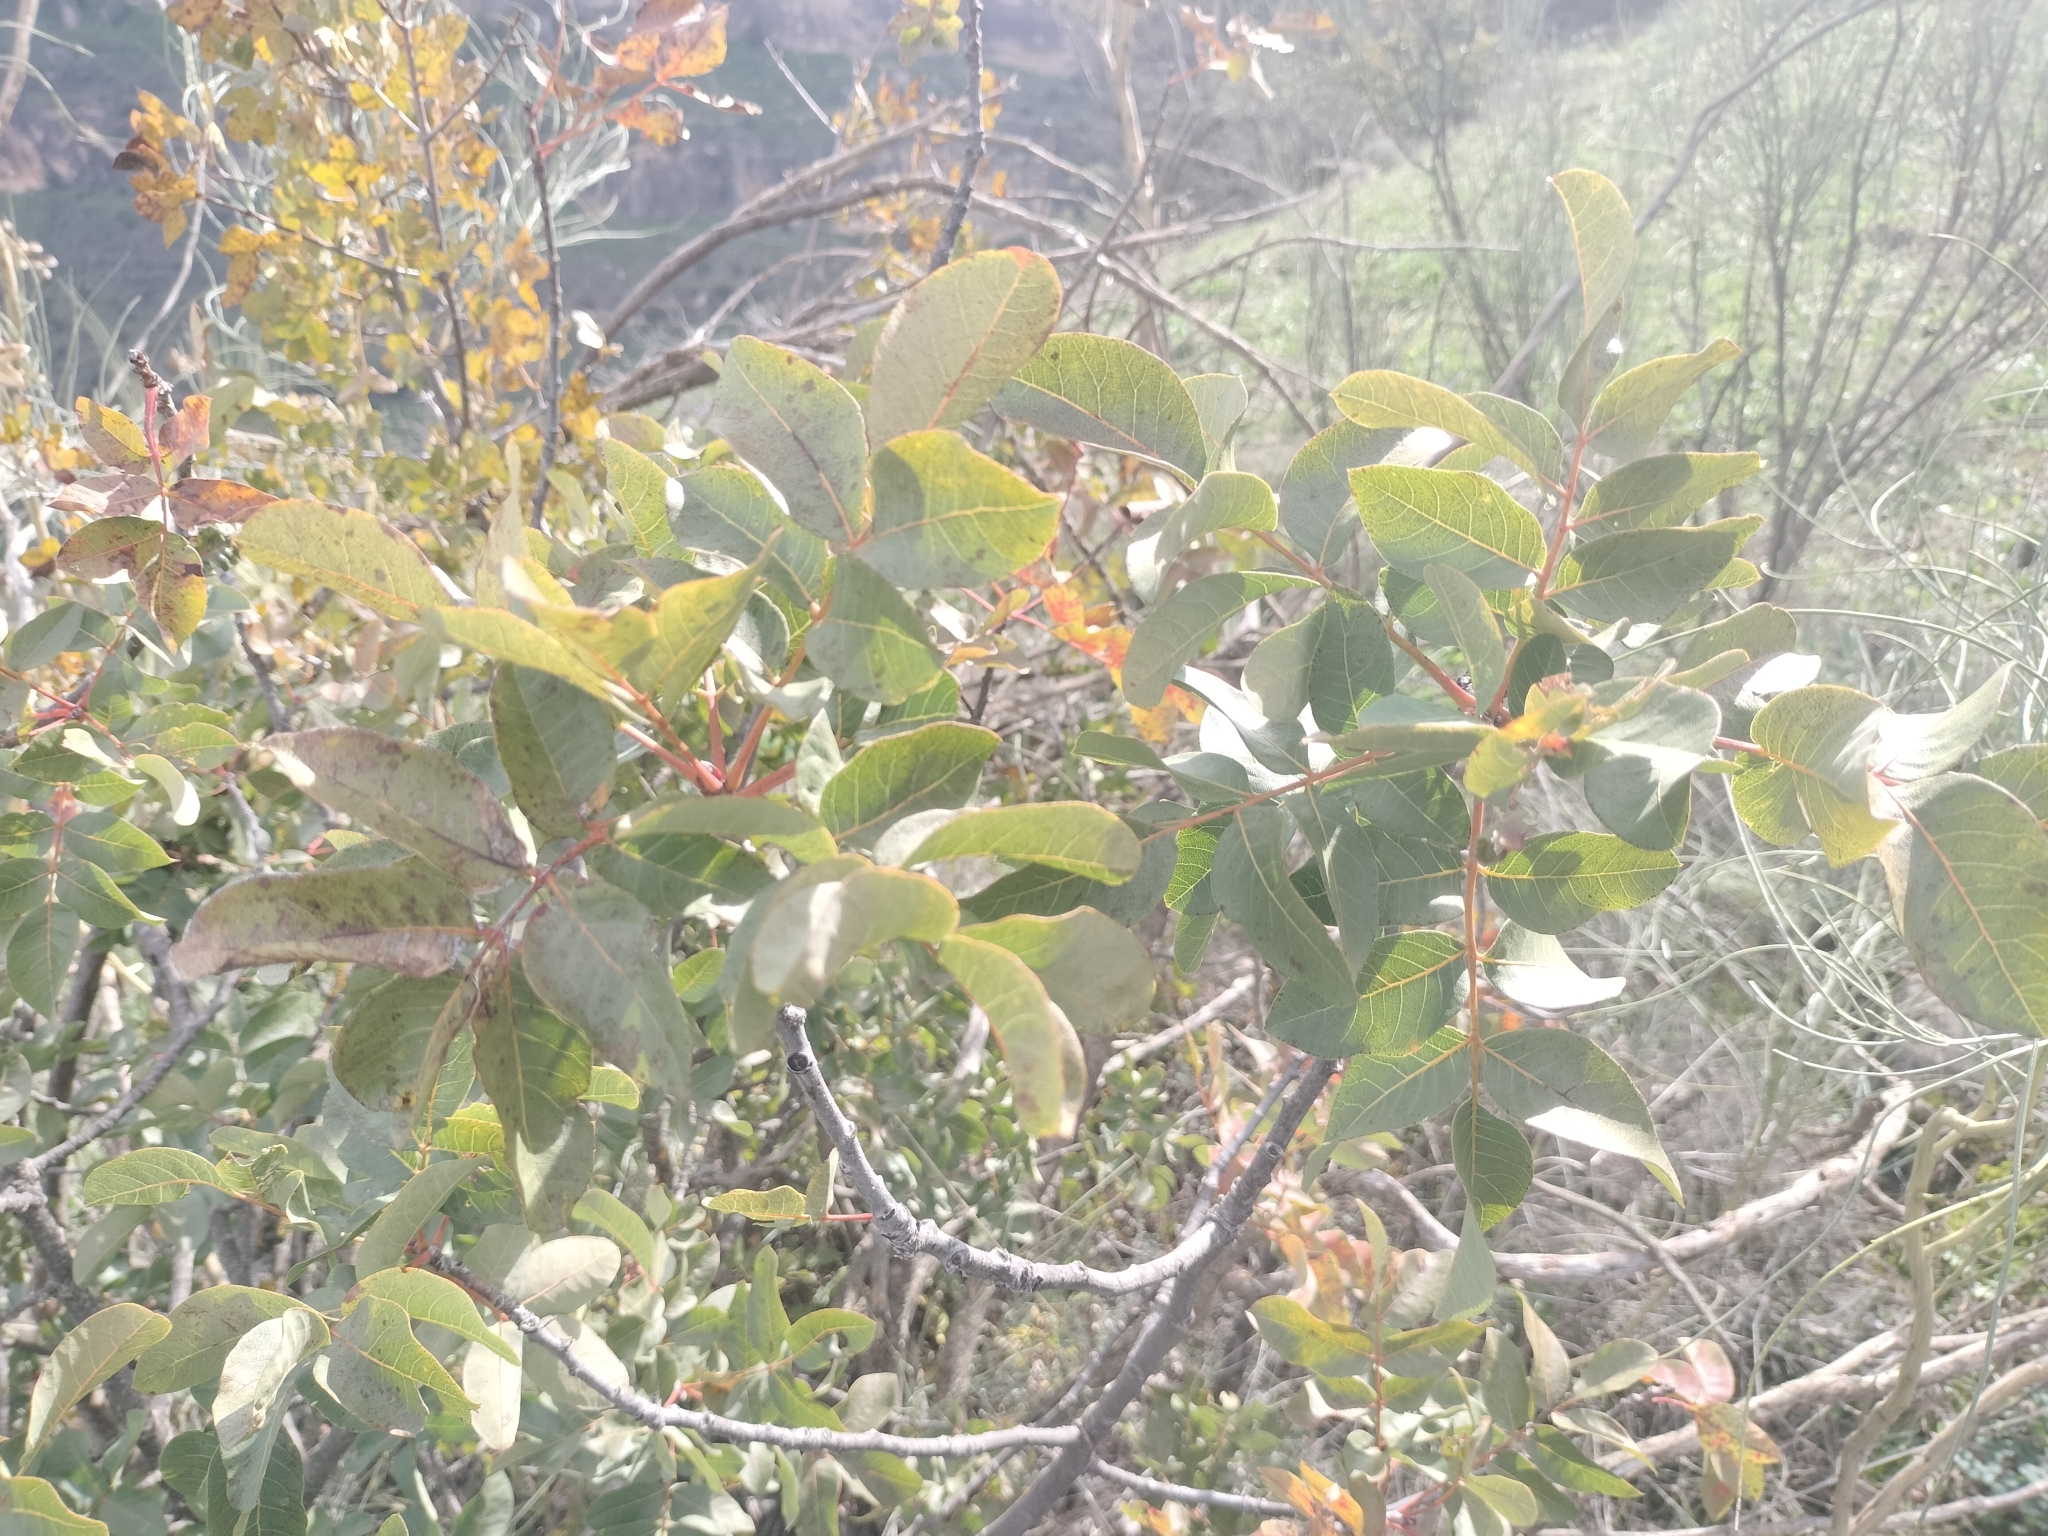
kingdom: Plantae
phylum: Tracheophyta
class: Magnoliopsida
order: Sapindales
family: Anacardiaceae
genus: Pistacia
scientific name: Pistacia terebinthus
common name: Terebinth
